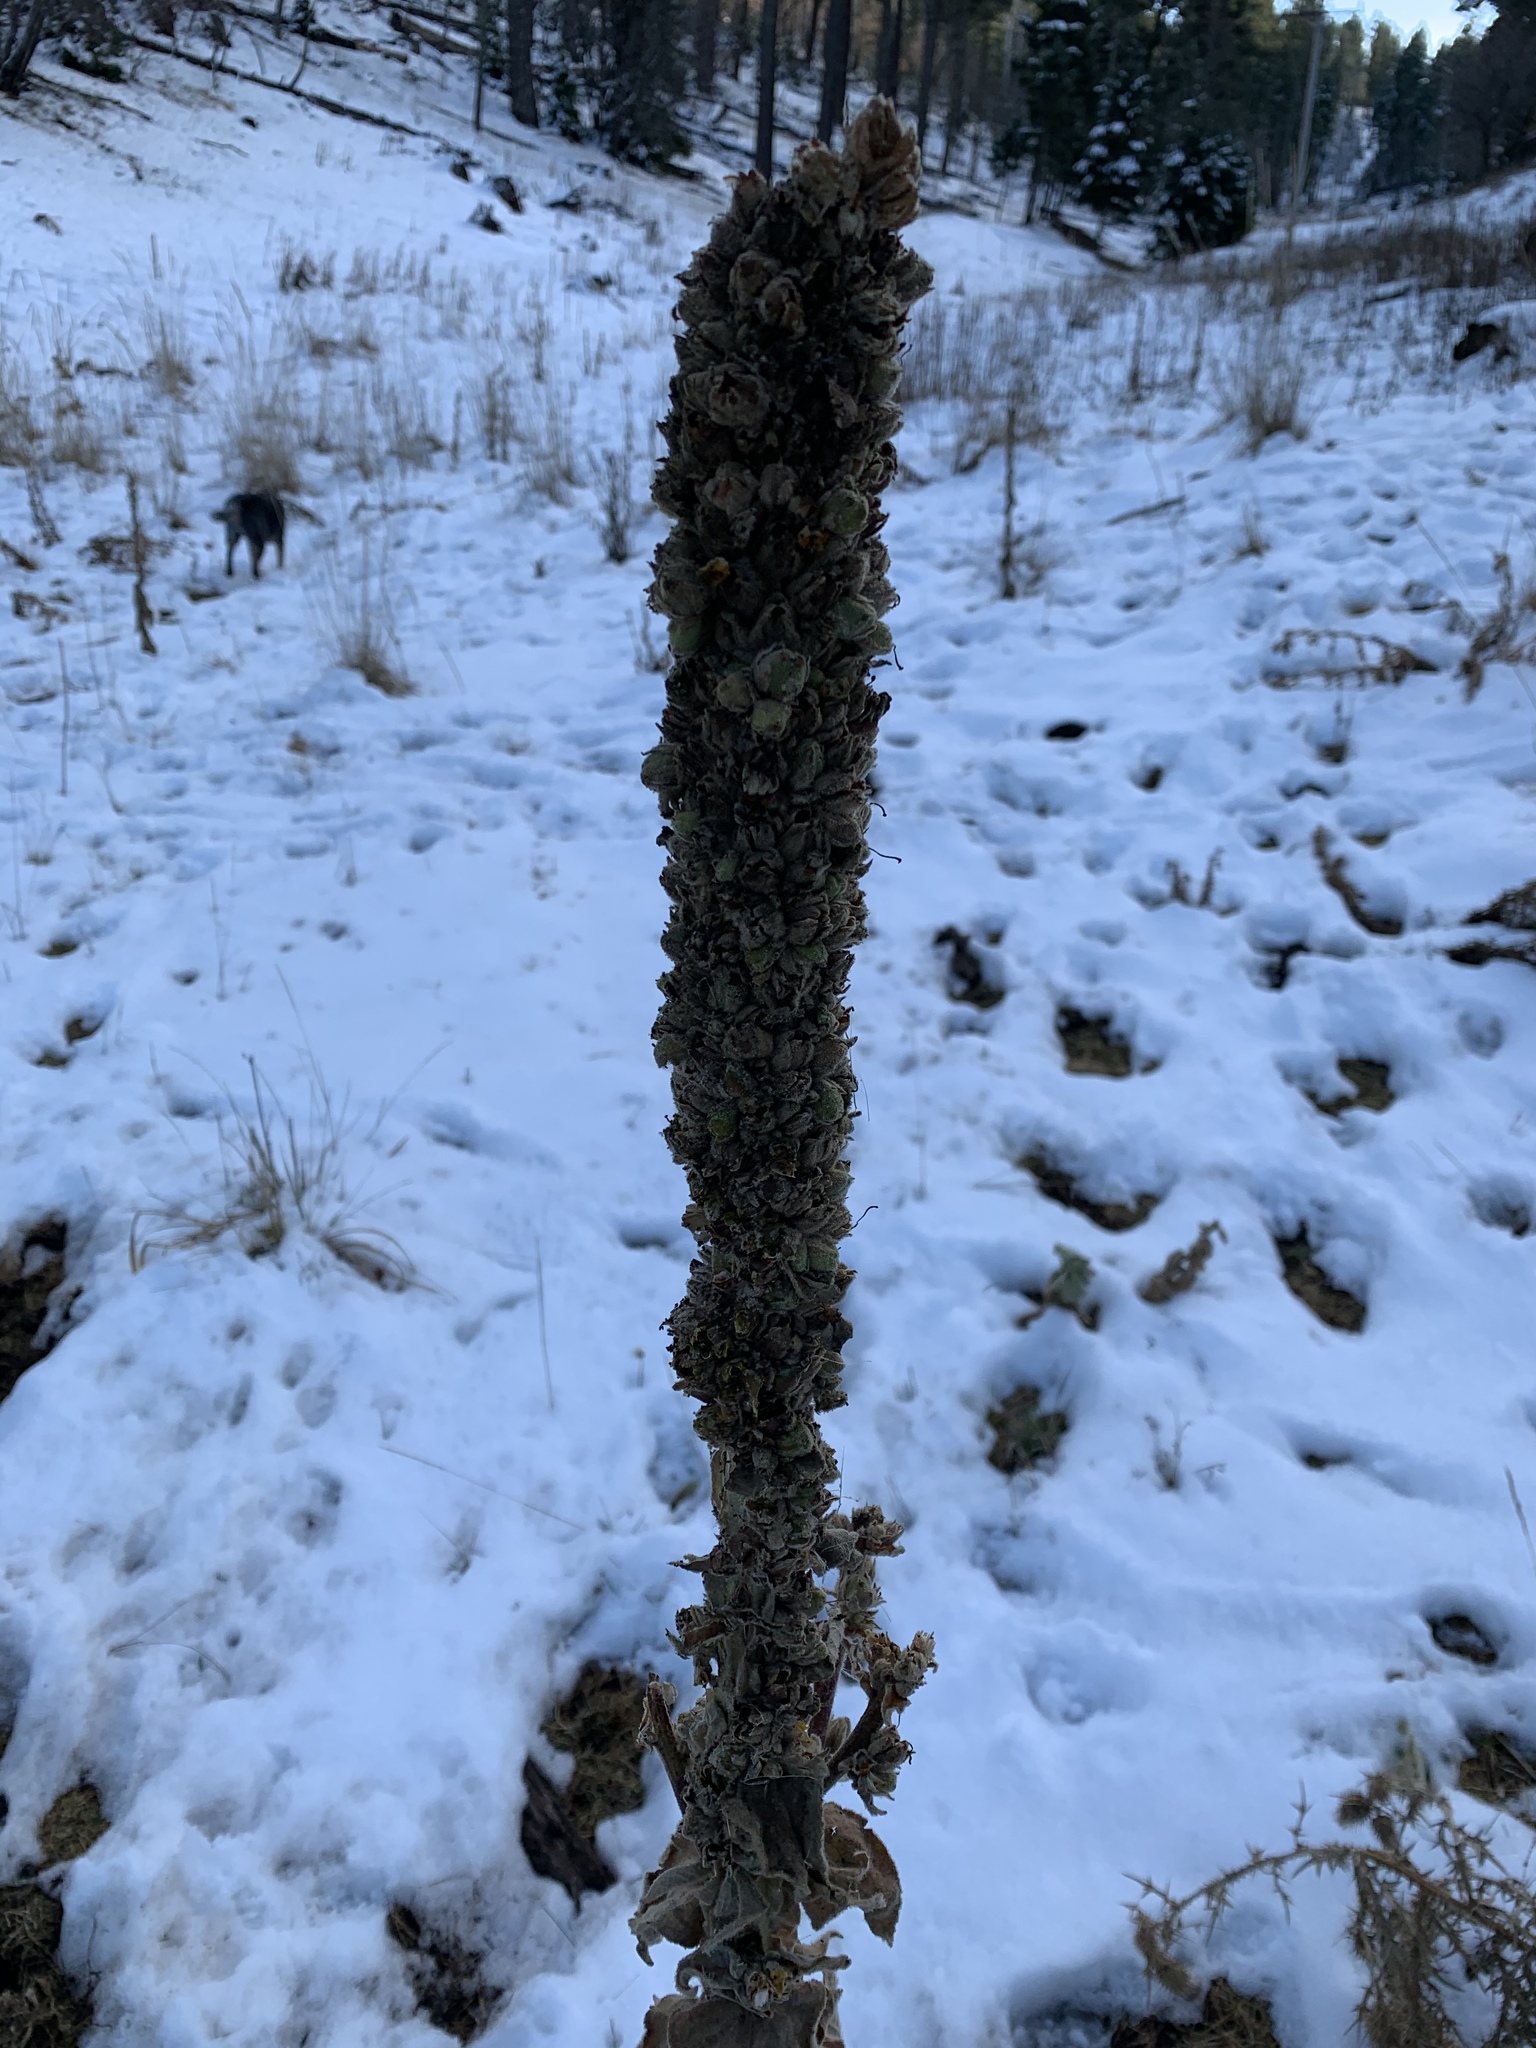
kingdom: Plantae
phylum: Tracheophyta
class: Magnoliopsida
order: Lamiales
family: Scrophulariaceae
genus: Verbascum
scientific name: Verbascum thapsus
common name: Common mullein
